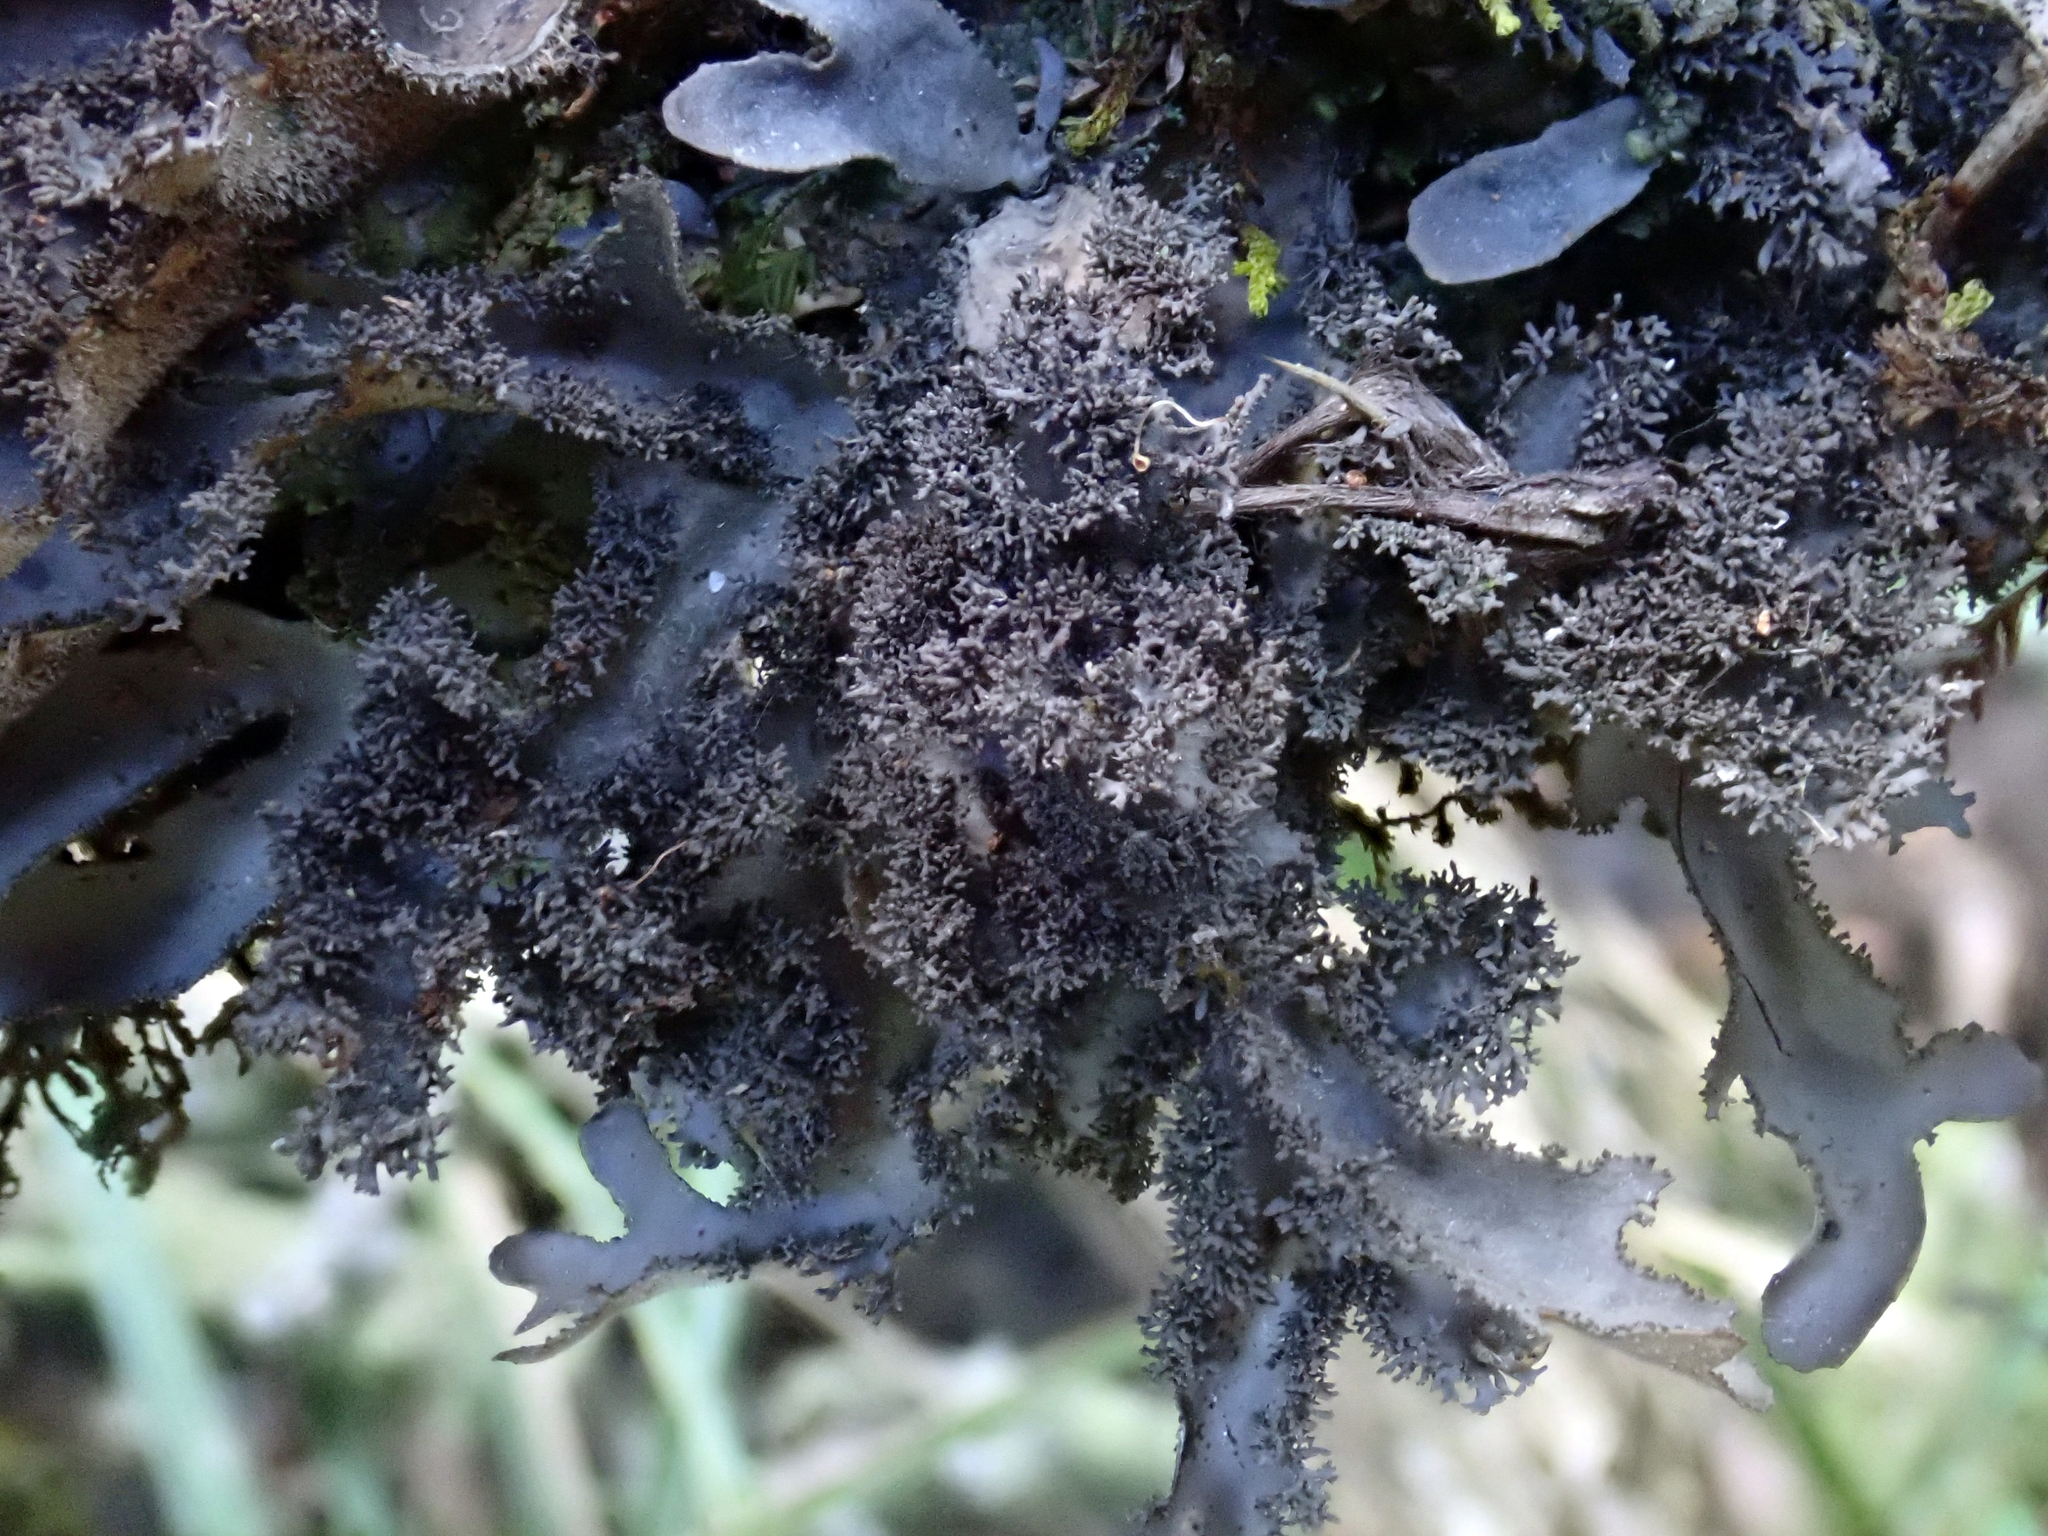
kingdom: Fungi
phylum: Ascomycota
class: Lecanoromycetes
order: Peltigerales
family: Lobariaceae
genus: Pseudocyphellaria
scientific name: Pseudocyphellaria dissimilis
